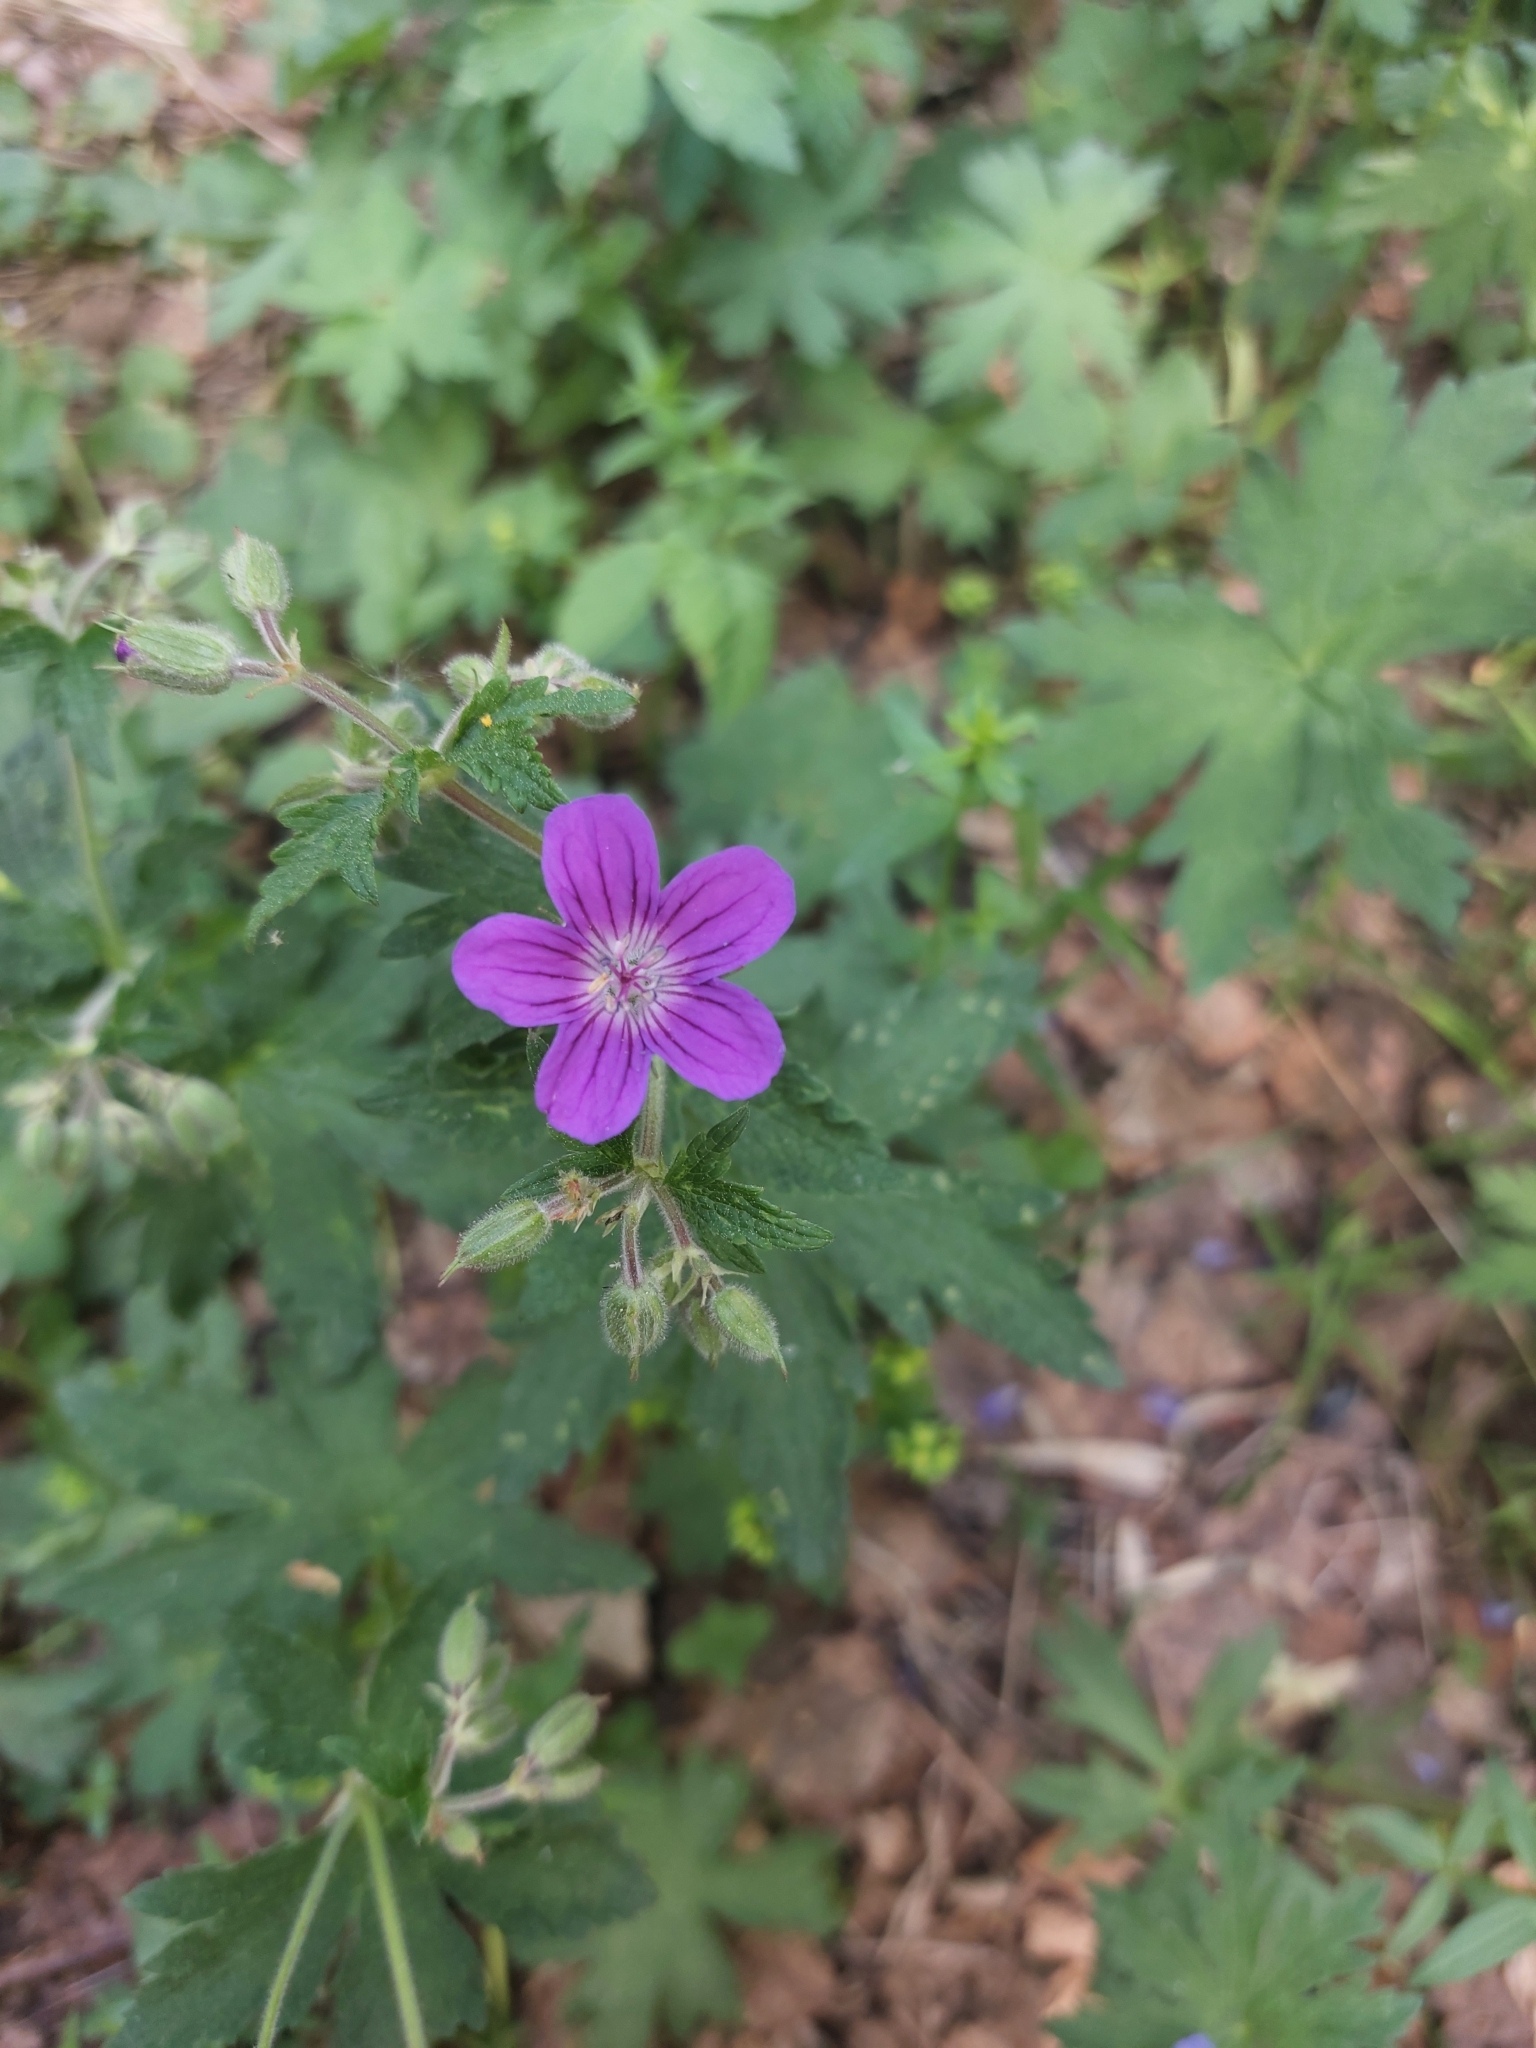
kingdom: Plantae
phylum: Tracheophyta
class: Magnoliopsida
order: Geraniales
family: Geraniaceae
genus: Geranium
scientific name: Geranium sylvaticum
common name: Wood crane's-bill
